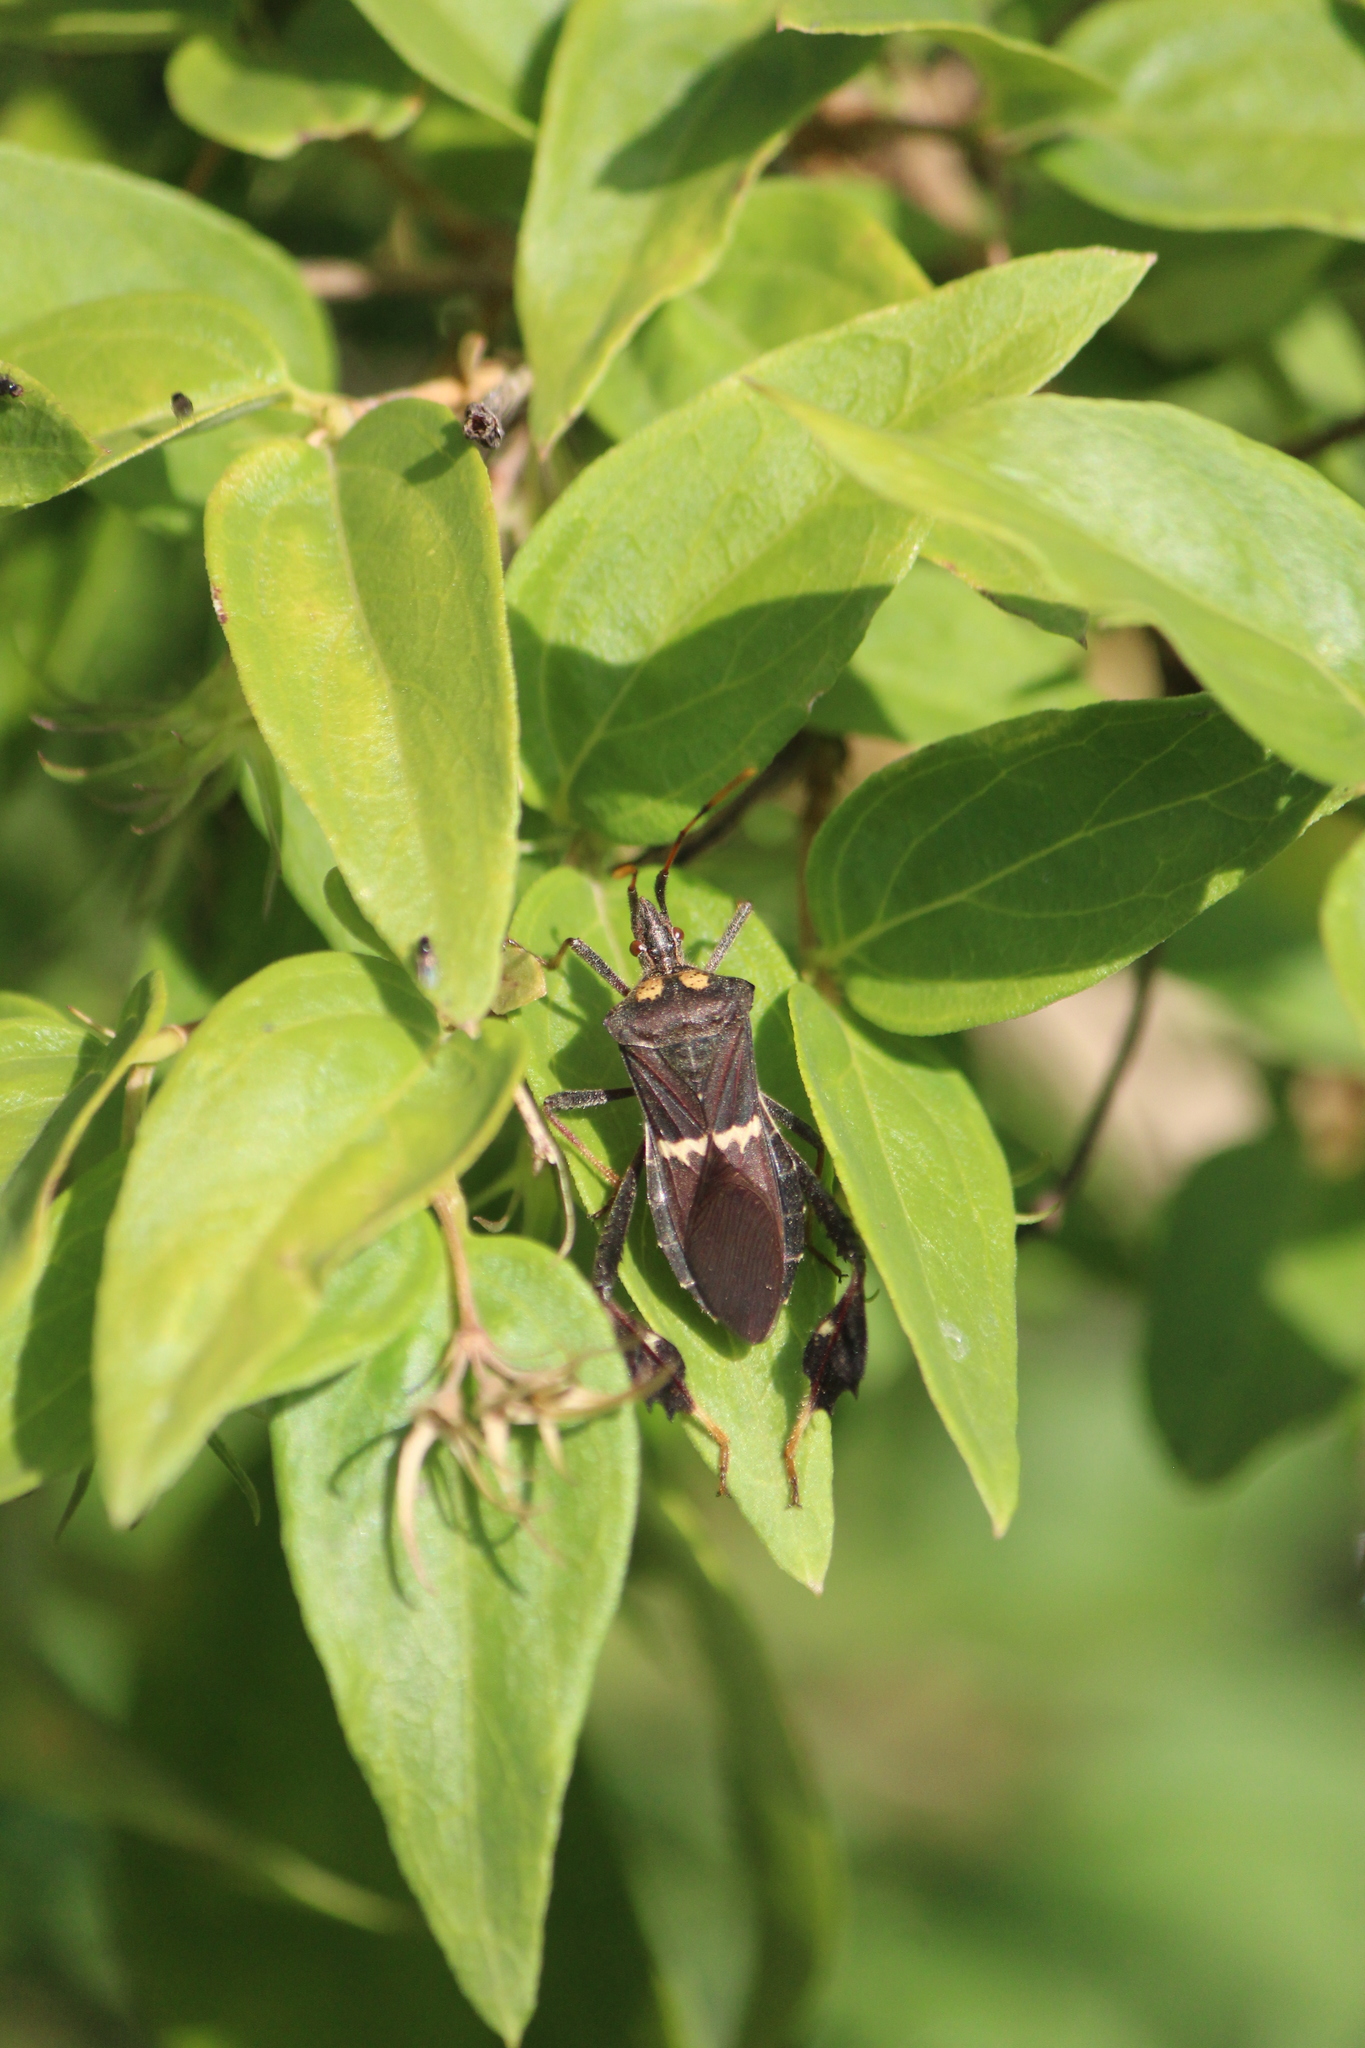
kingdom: Animalia
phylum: Arthropoda
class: Insecta
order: Hemiptera
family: Coreidae
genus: Leptoglossus
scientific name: Leptoglossus zonatus
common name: Large-legged bug
